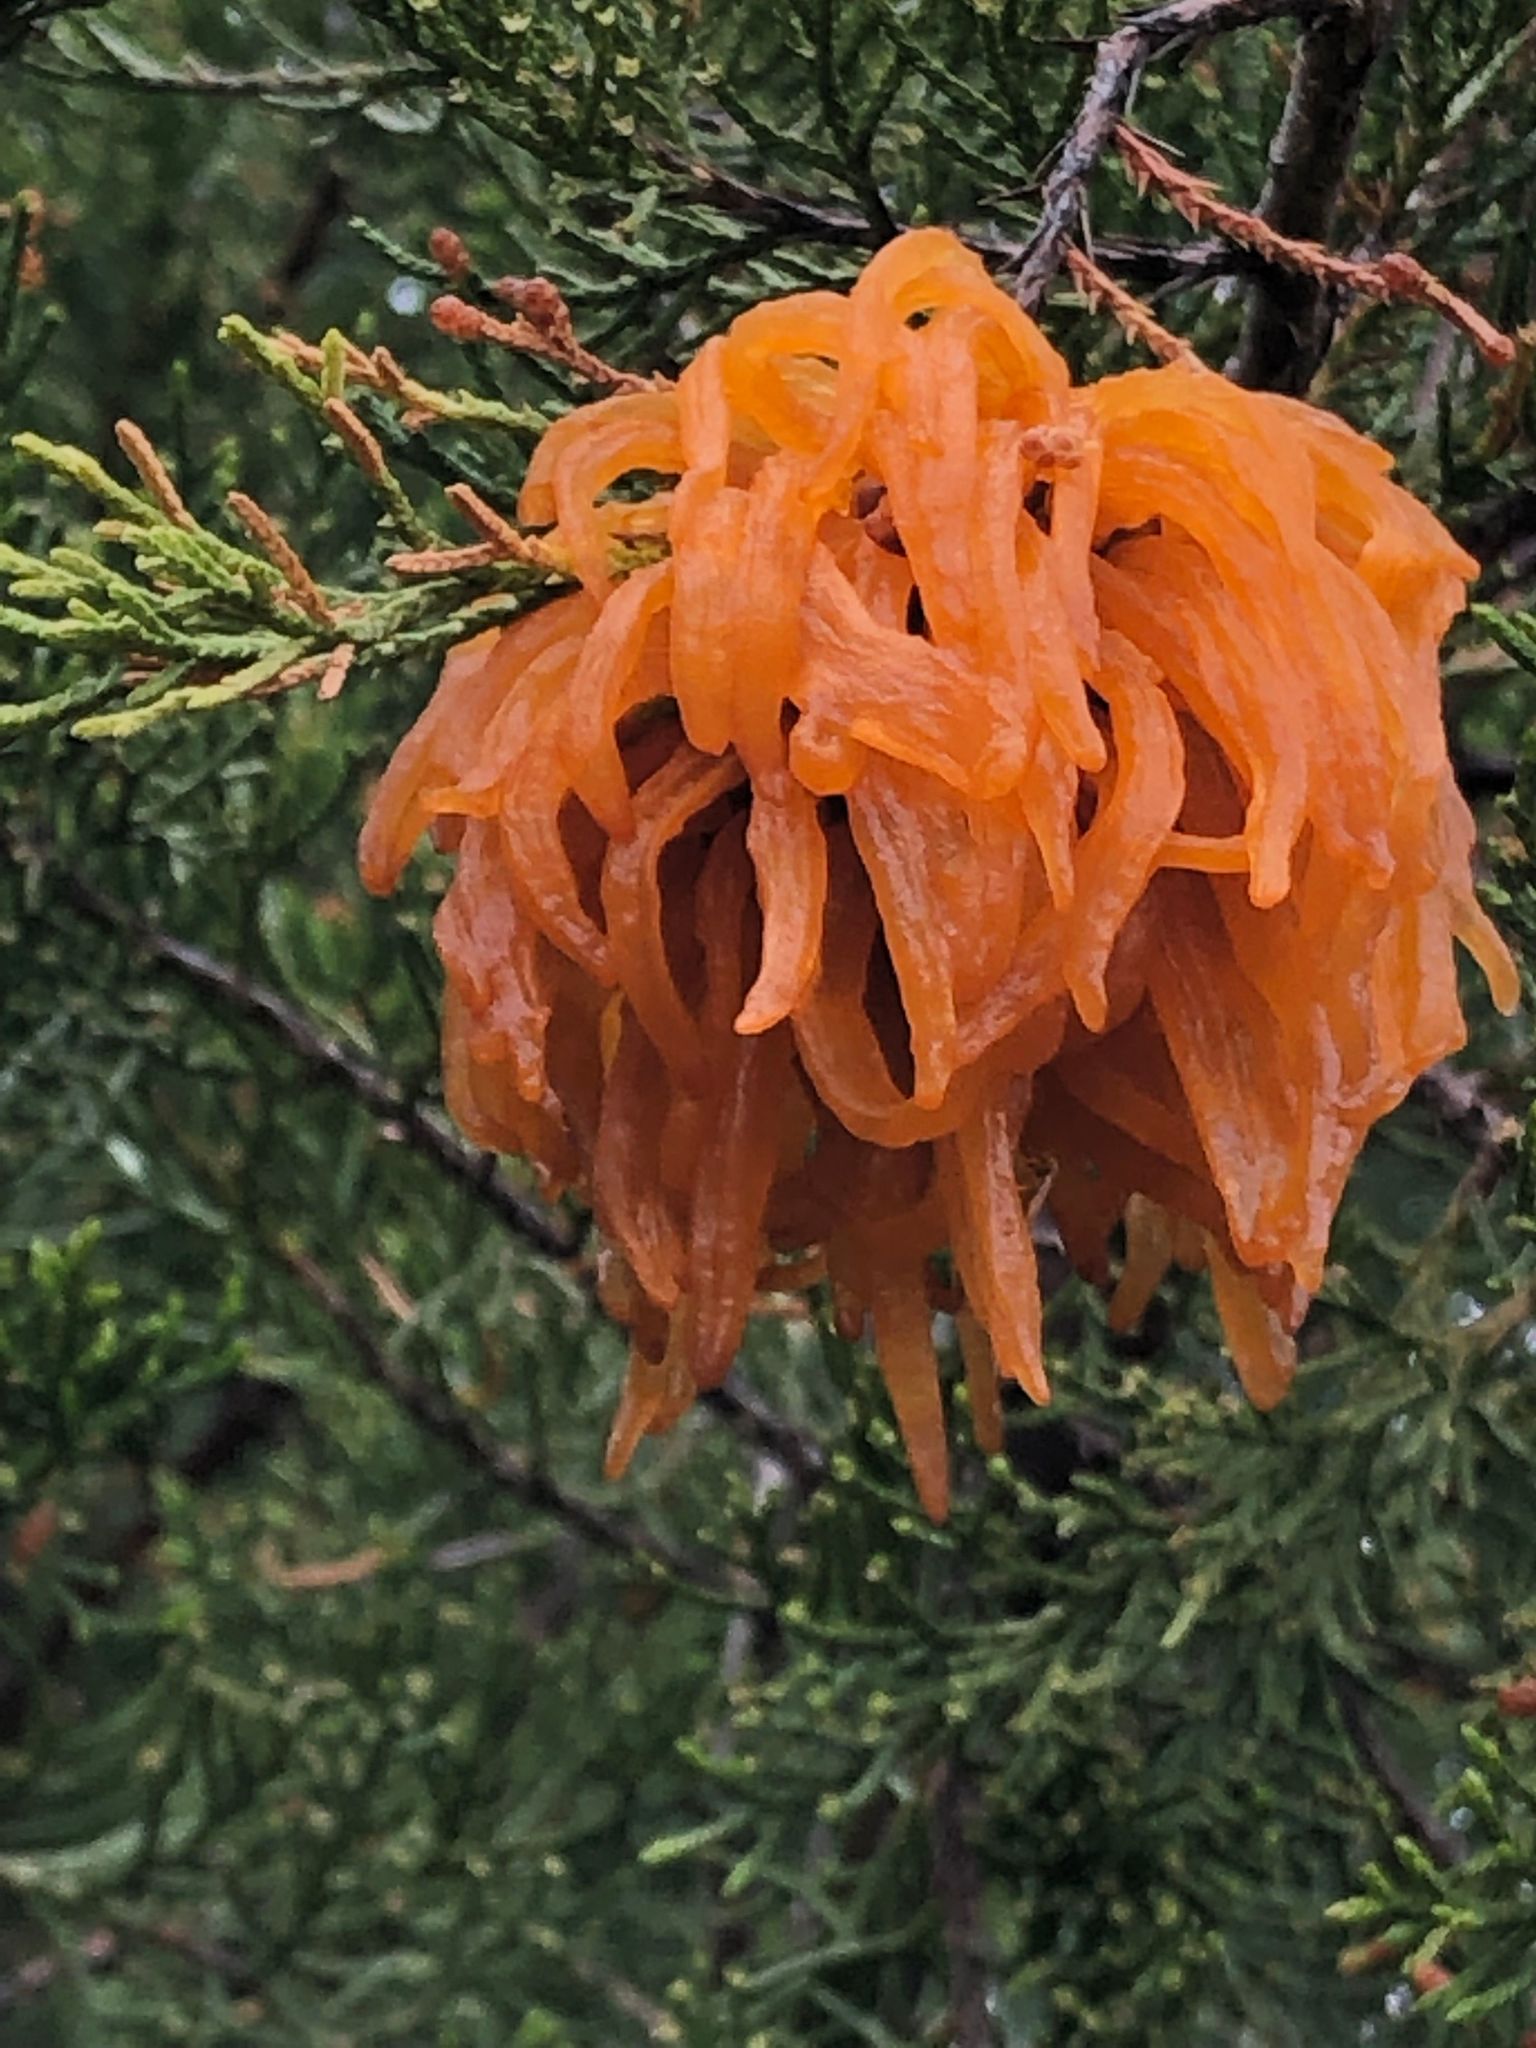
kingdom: Fungi
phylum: Basidiomycota
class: Pucciniomycetes
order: Pucciniales
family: Gymnosporangiaceae
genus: Gymnosporangium
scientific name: Gymnosporangium juniperi-virginianae
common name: Juniper-apple rust
